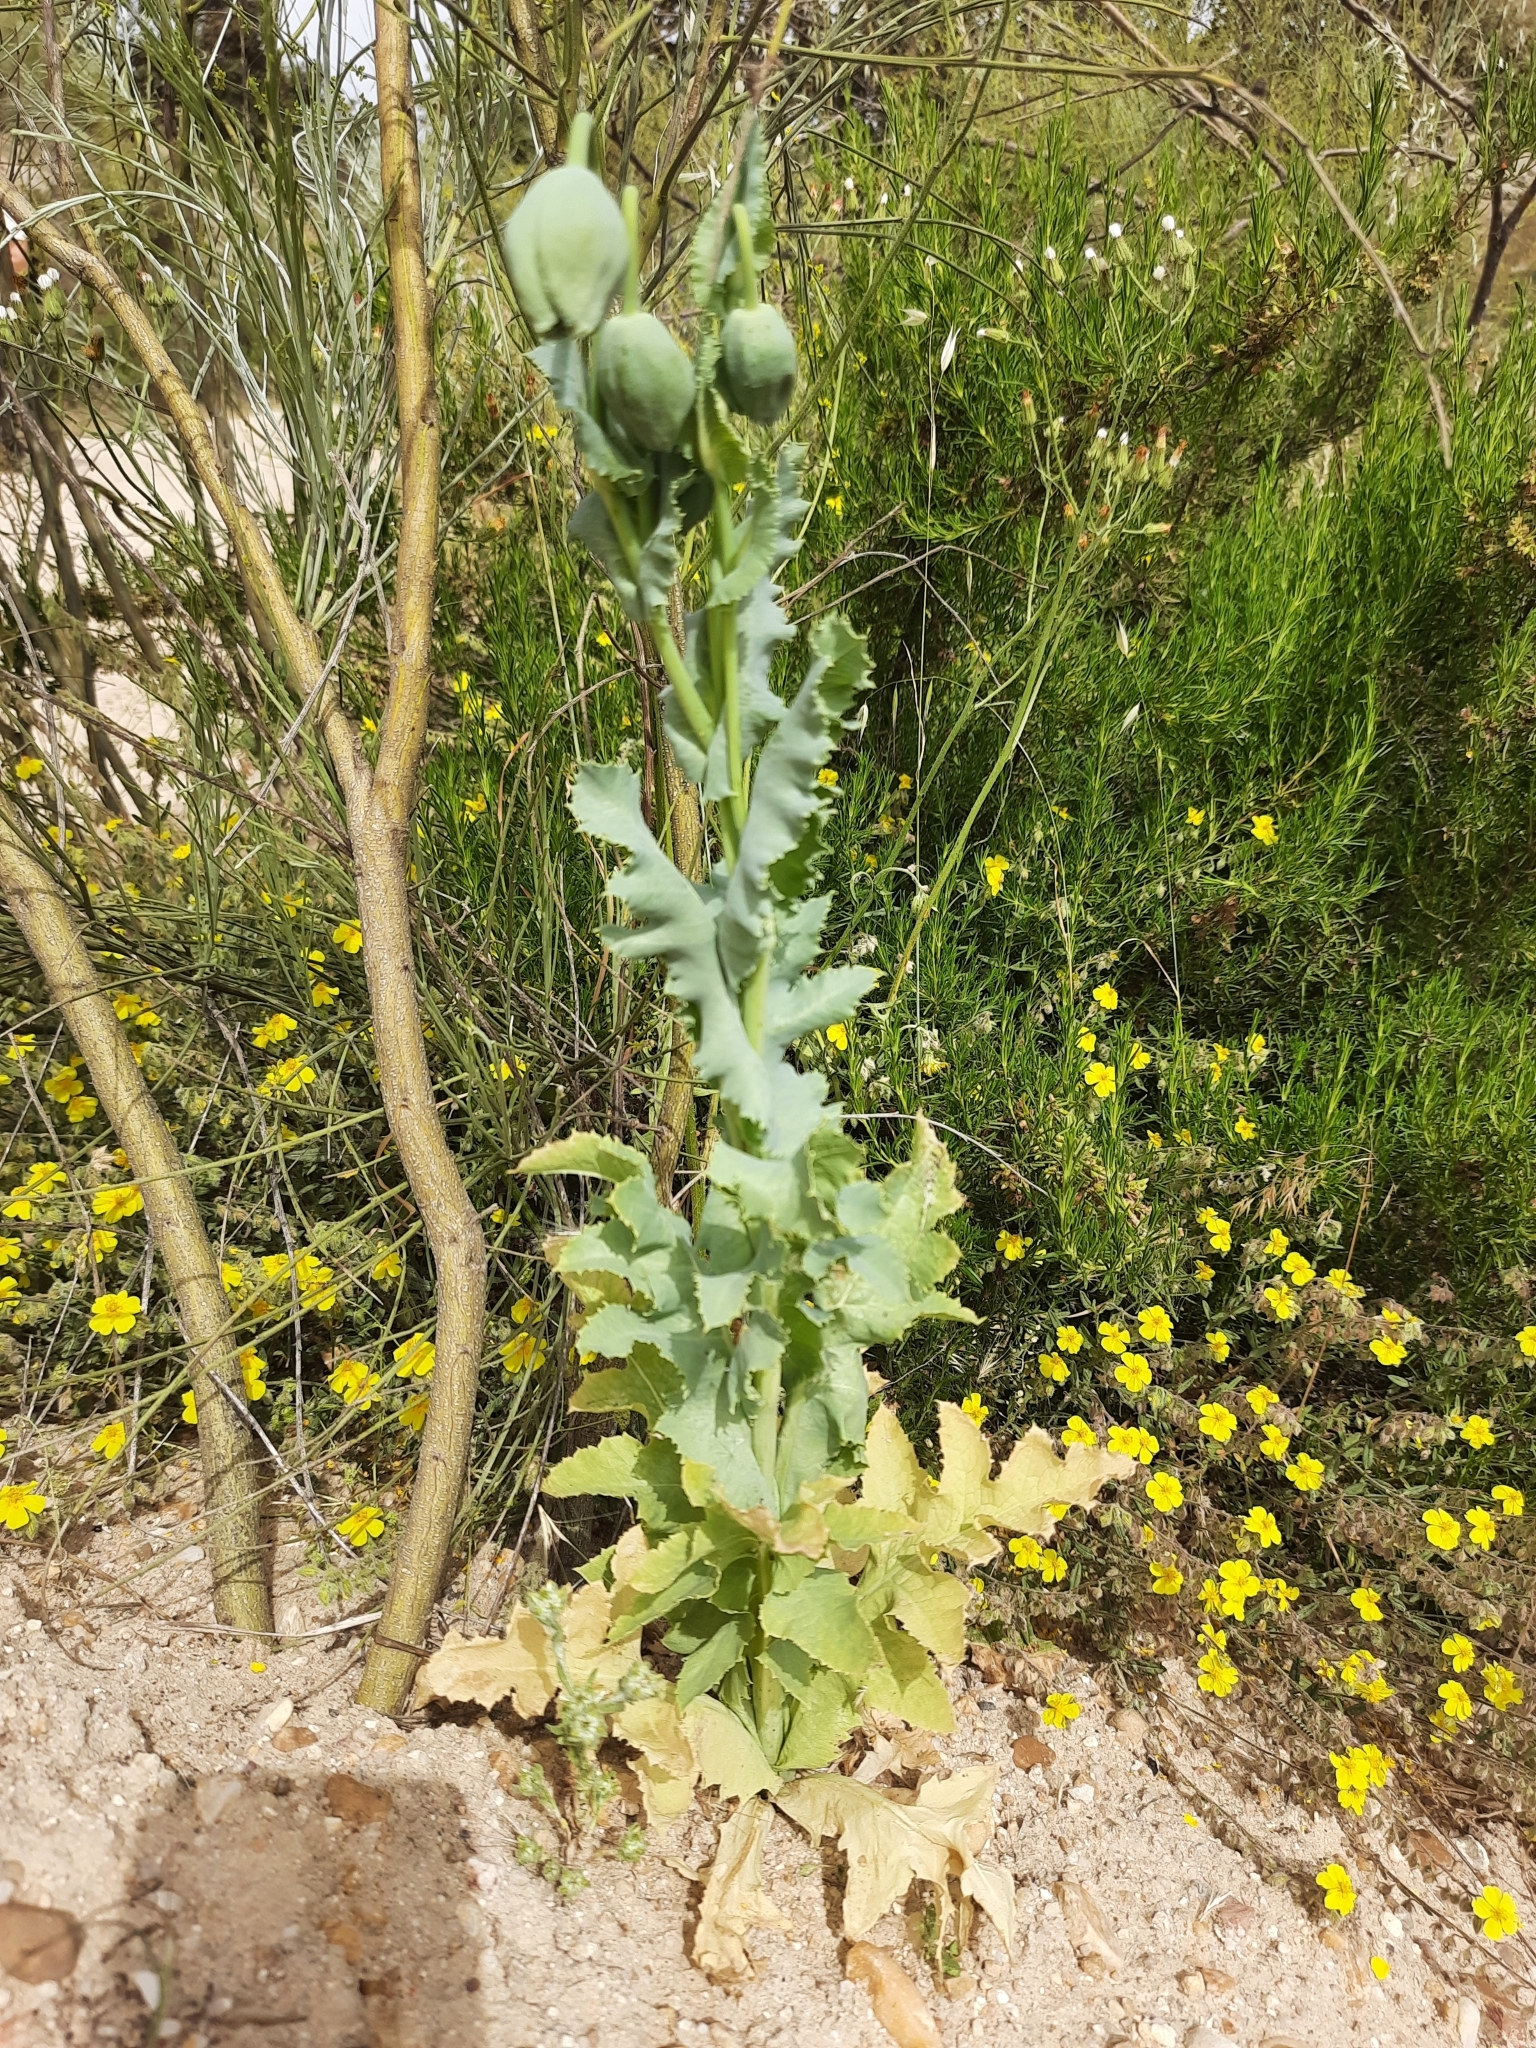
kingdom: Plantae
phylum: Tracheophyta
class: Magnoliopsida
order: Ranunculales
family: Papaveraceae
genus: Papaver
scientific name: Papaver somniferum
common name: Opium poppy
